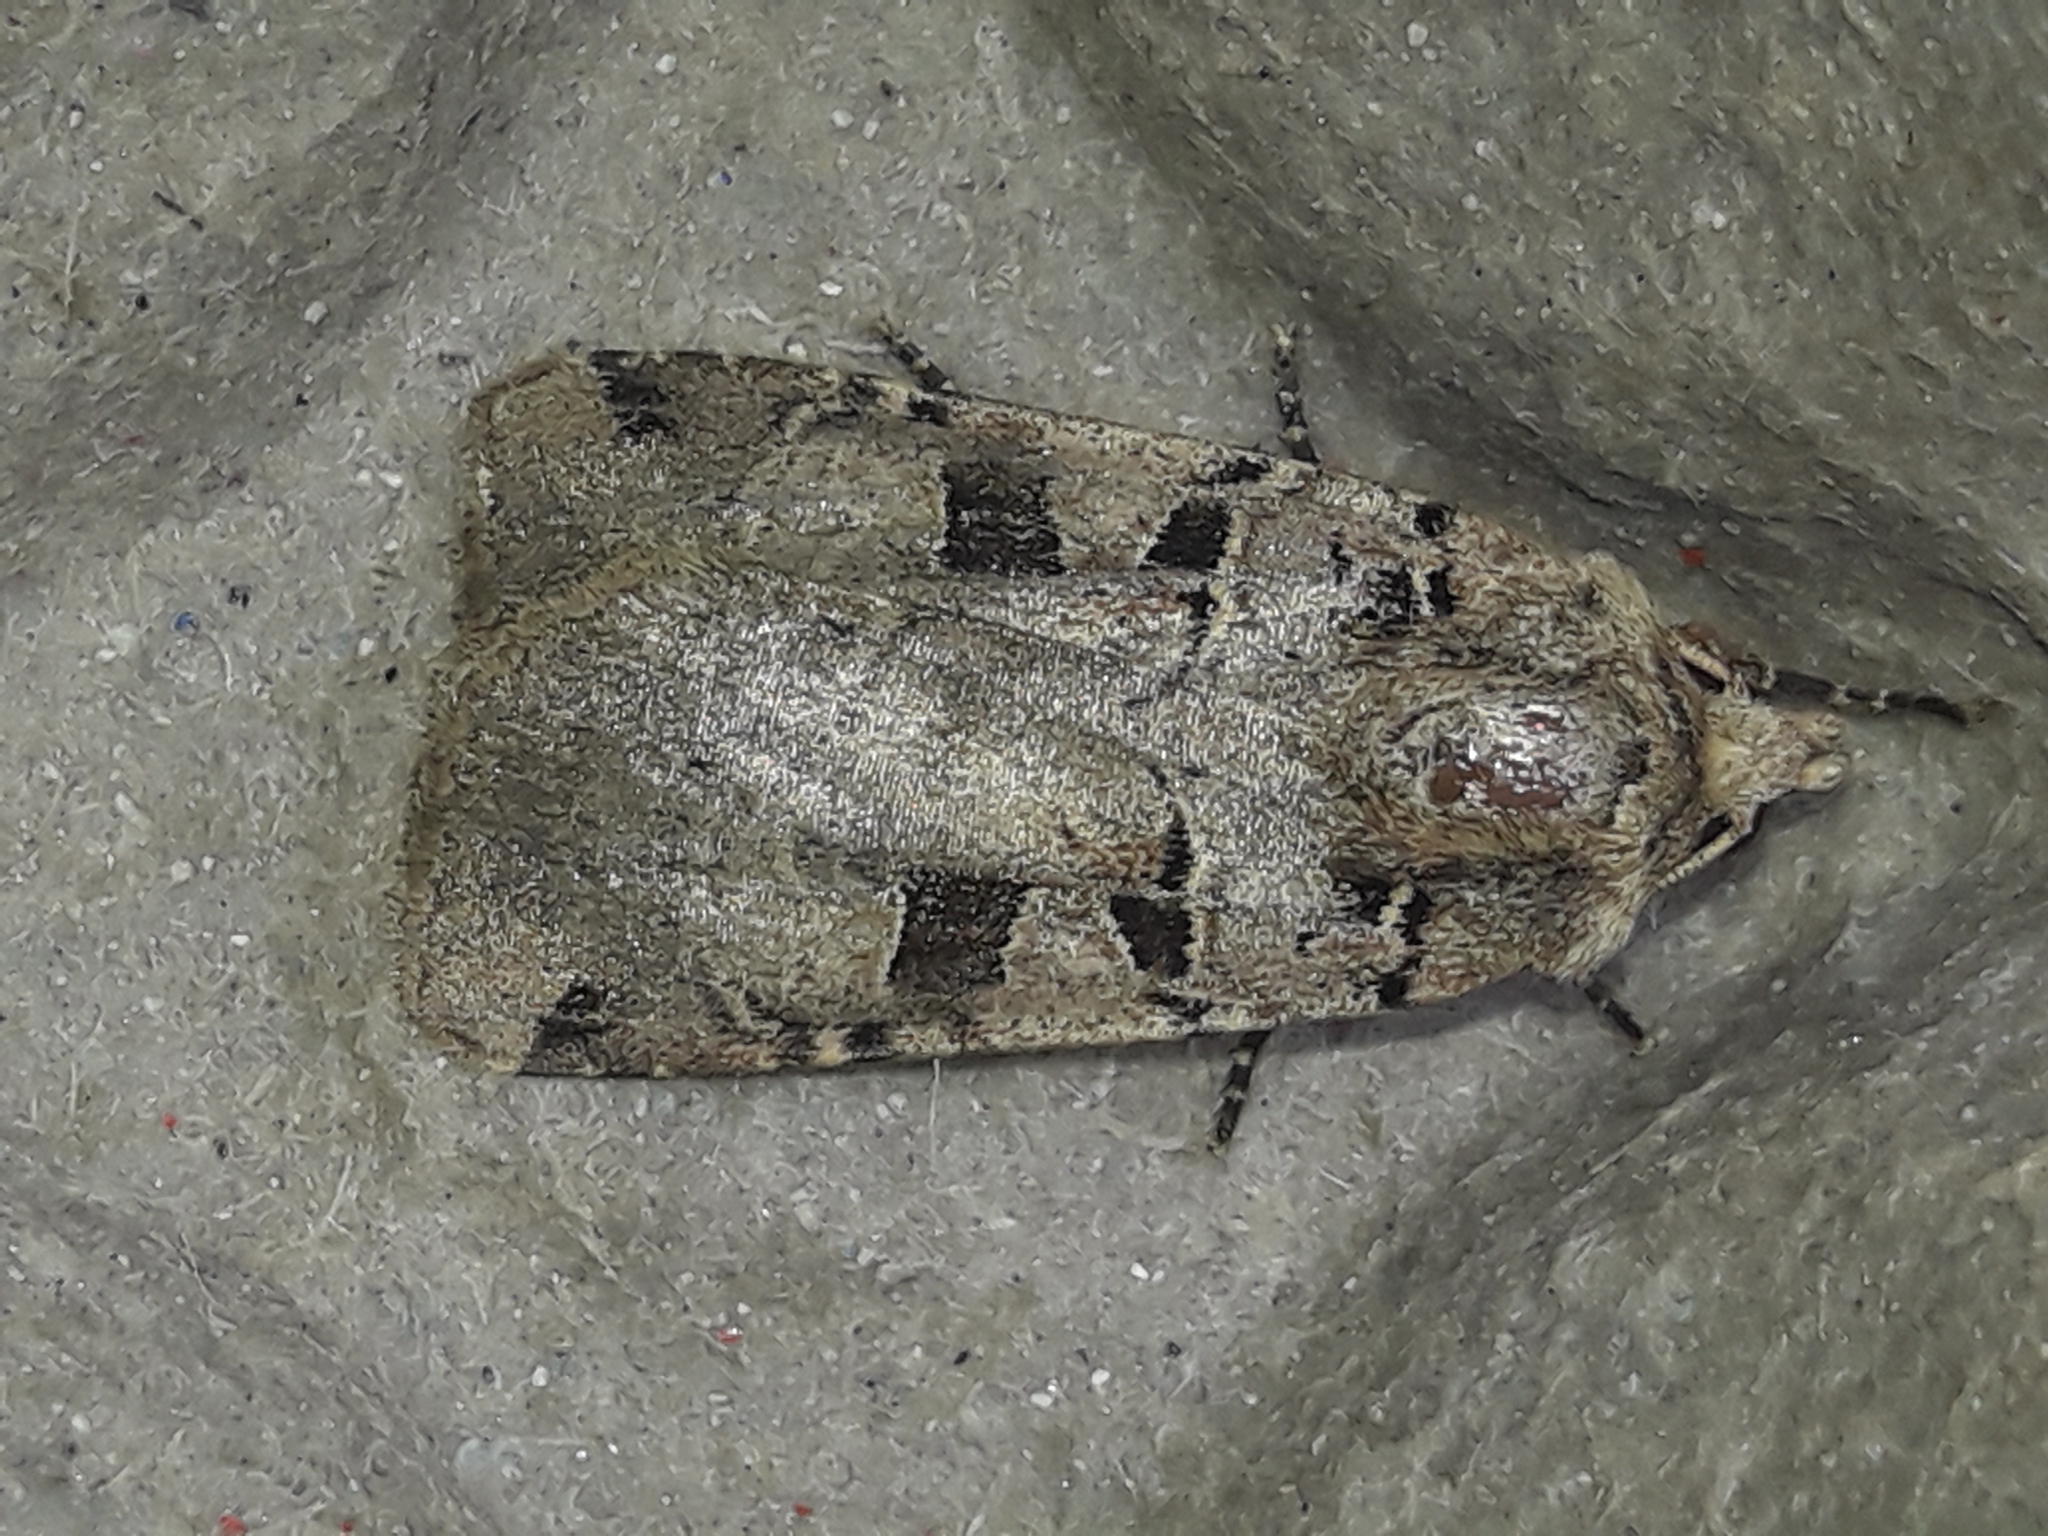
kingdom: Animalia
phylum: Arthropoda
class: Insecta
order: Lepidoptera
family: Noctuidae
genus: Xestia
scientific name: Xestia triangulum
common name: Double square-spot
